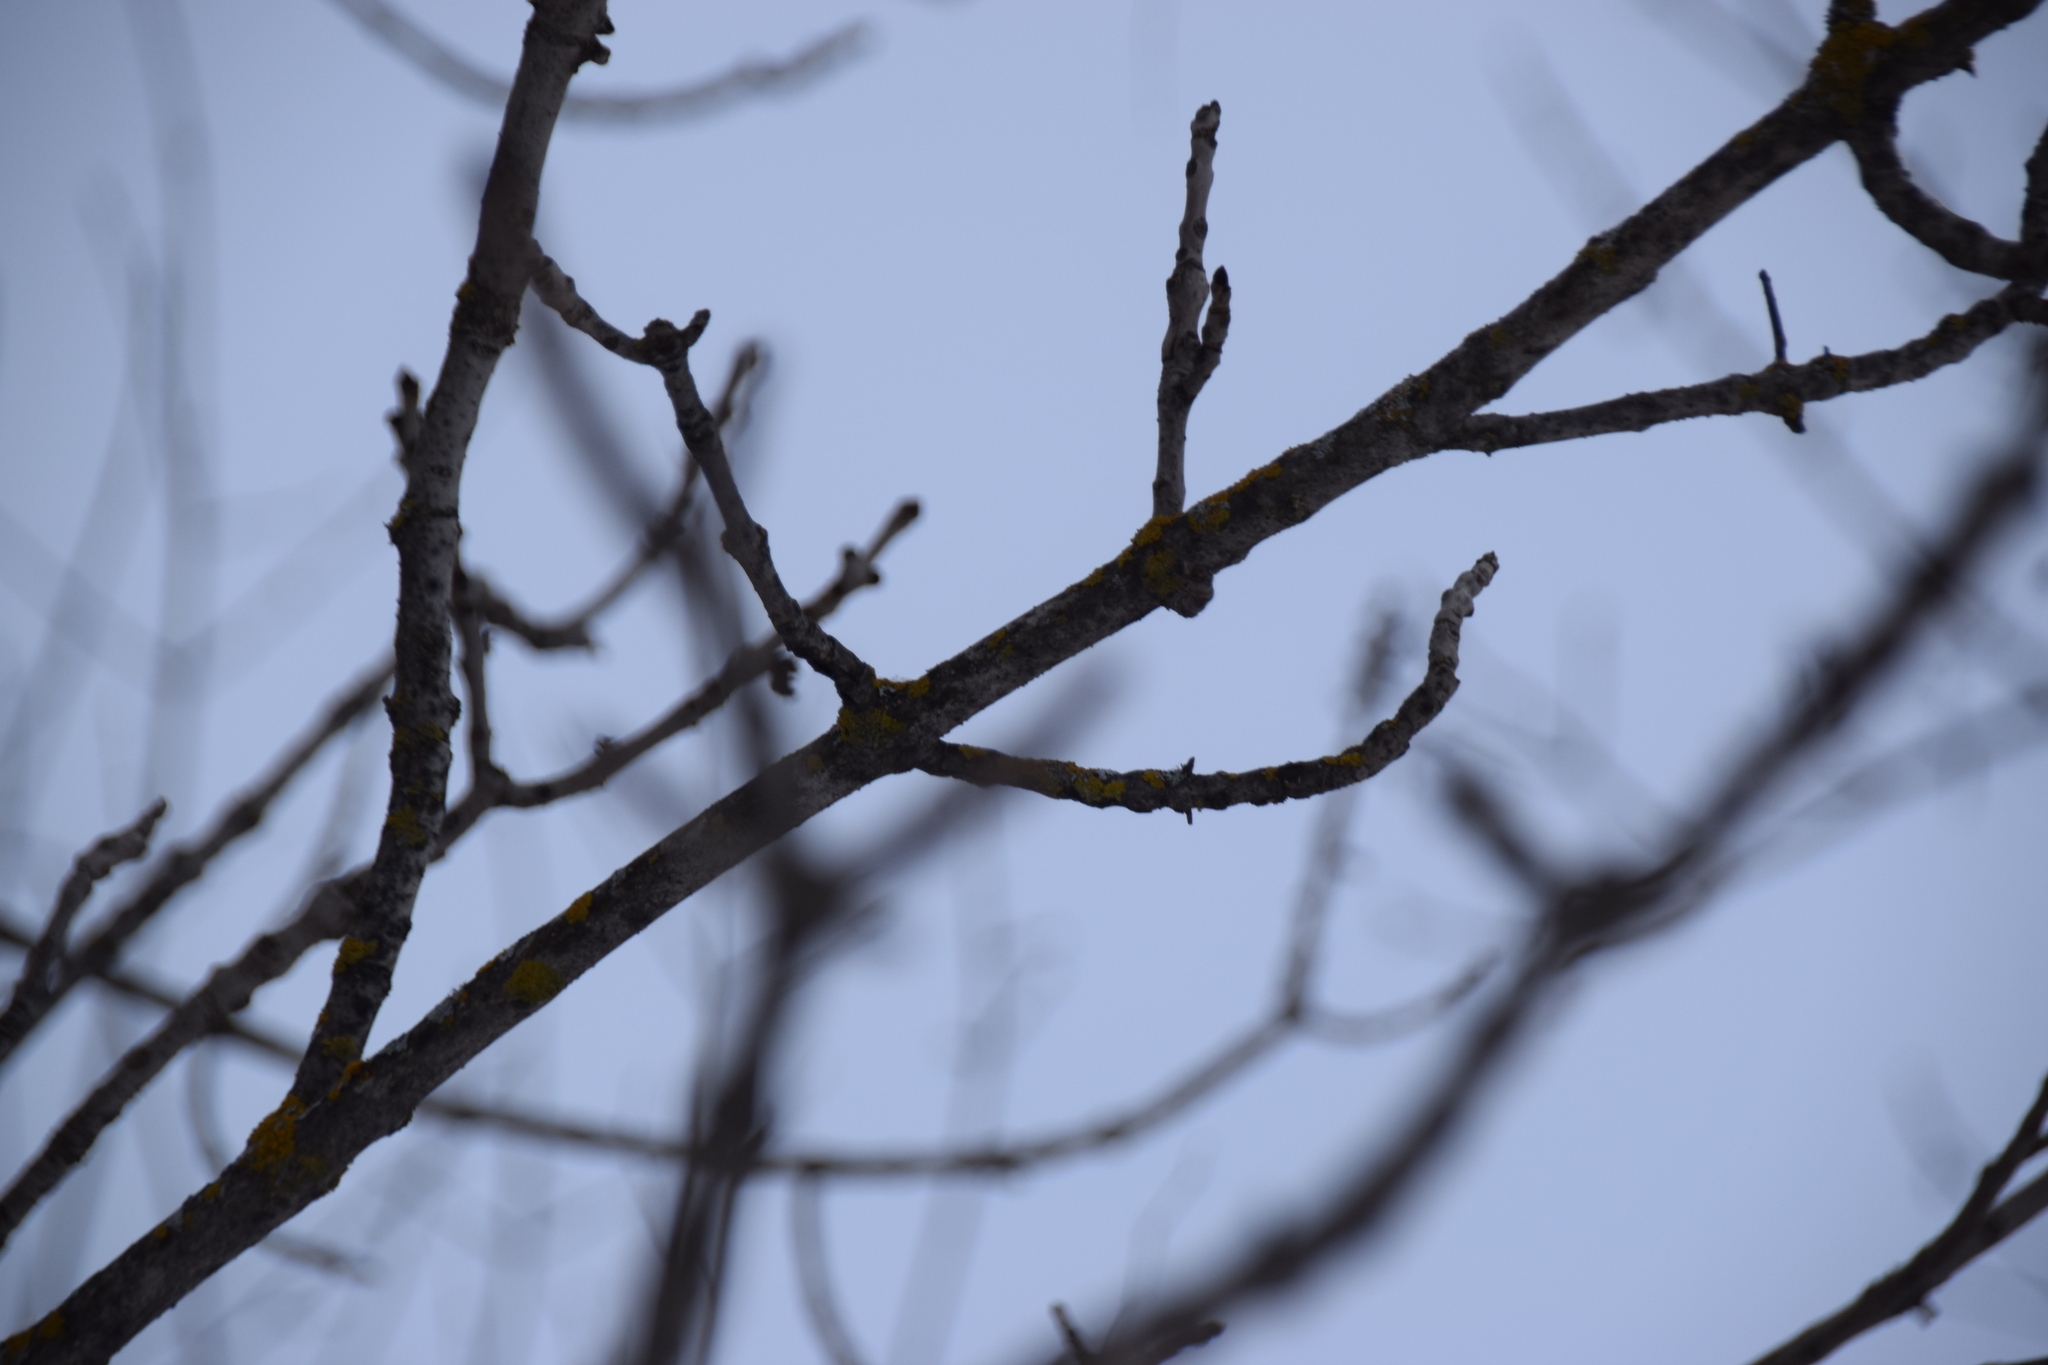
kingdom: Plantae
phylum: Tracheophyta
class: Magnoliopsida
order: Lamiales
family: Oleaceae
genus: Fraxinus
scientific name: Fraxinus nigra
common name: Black ash
